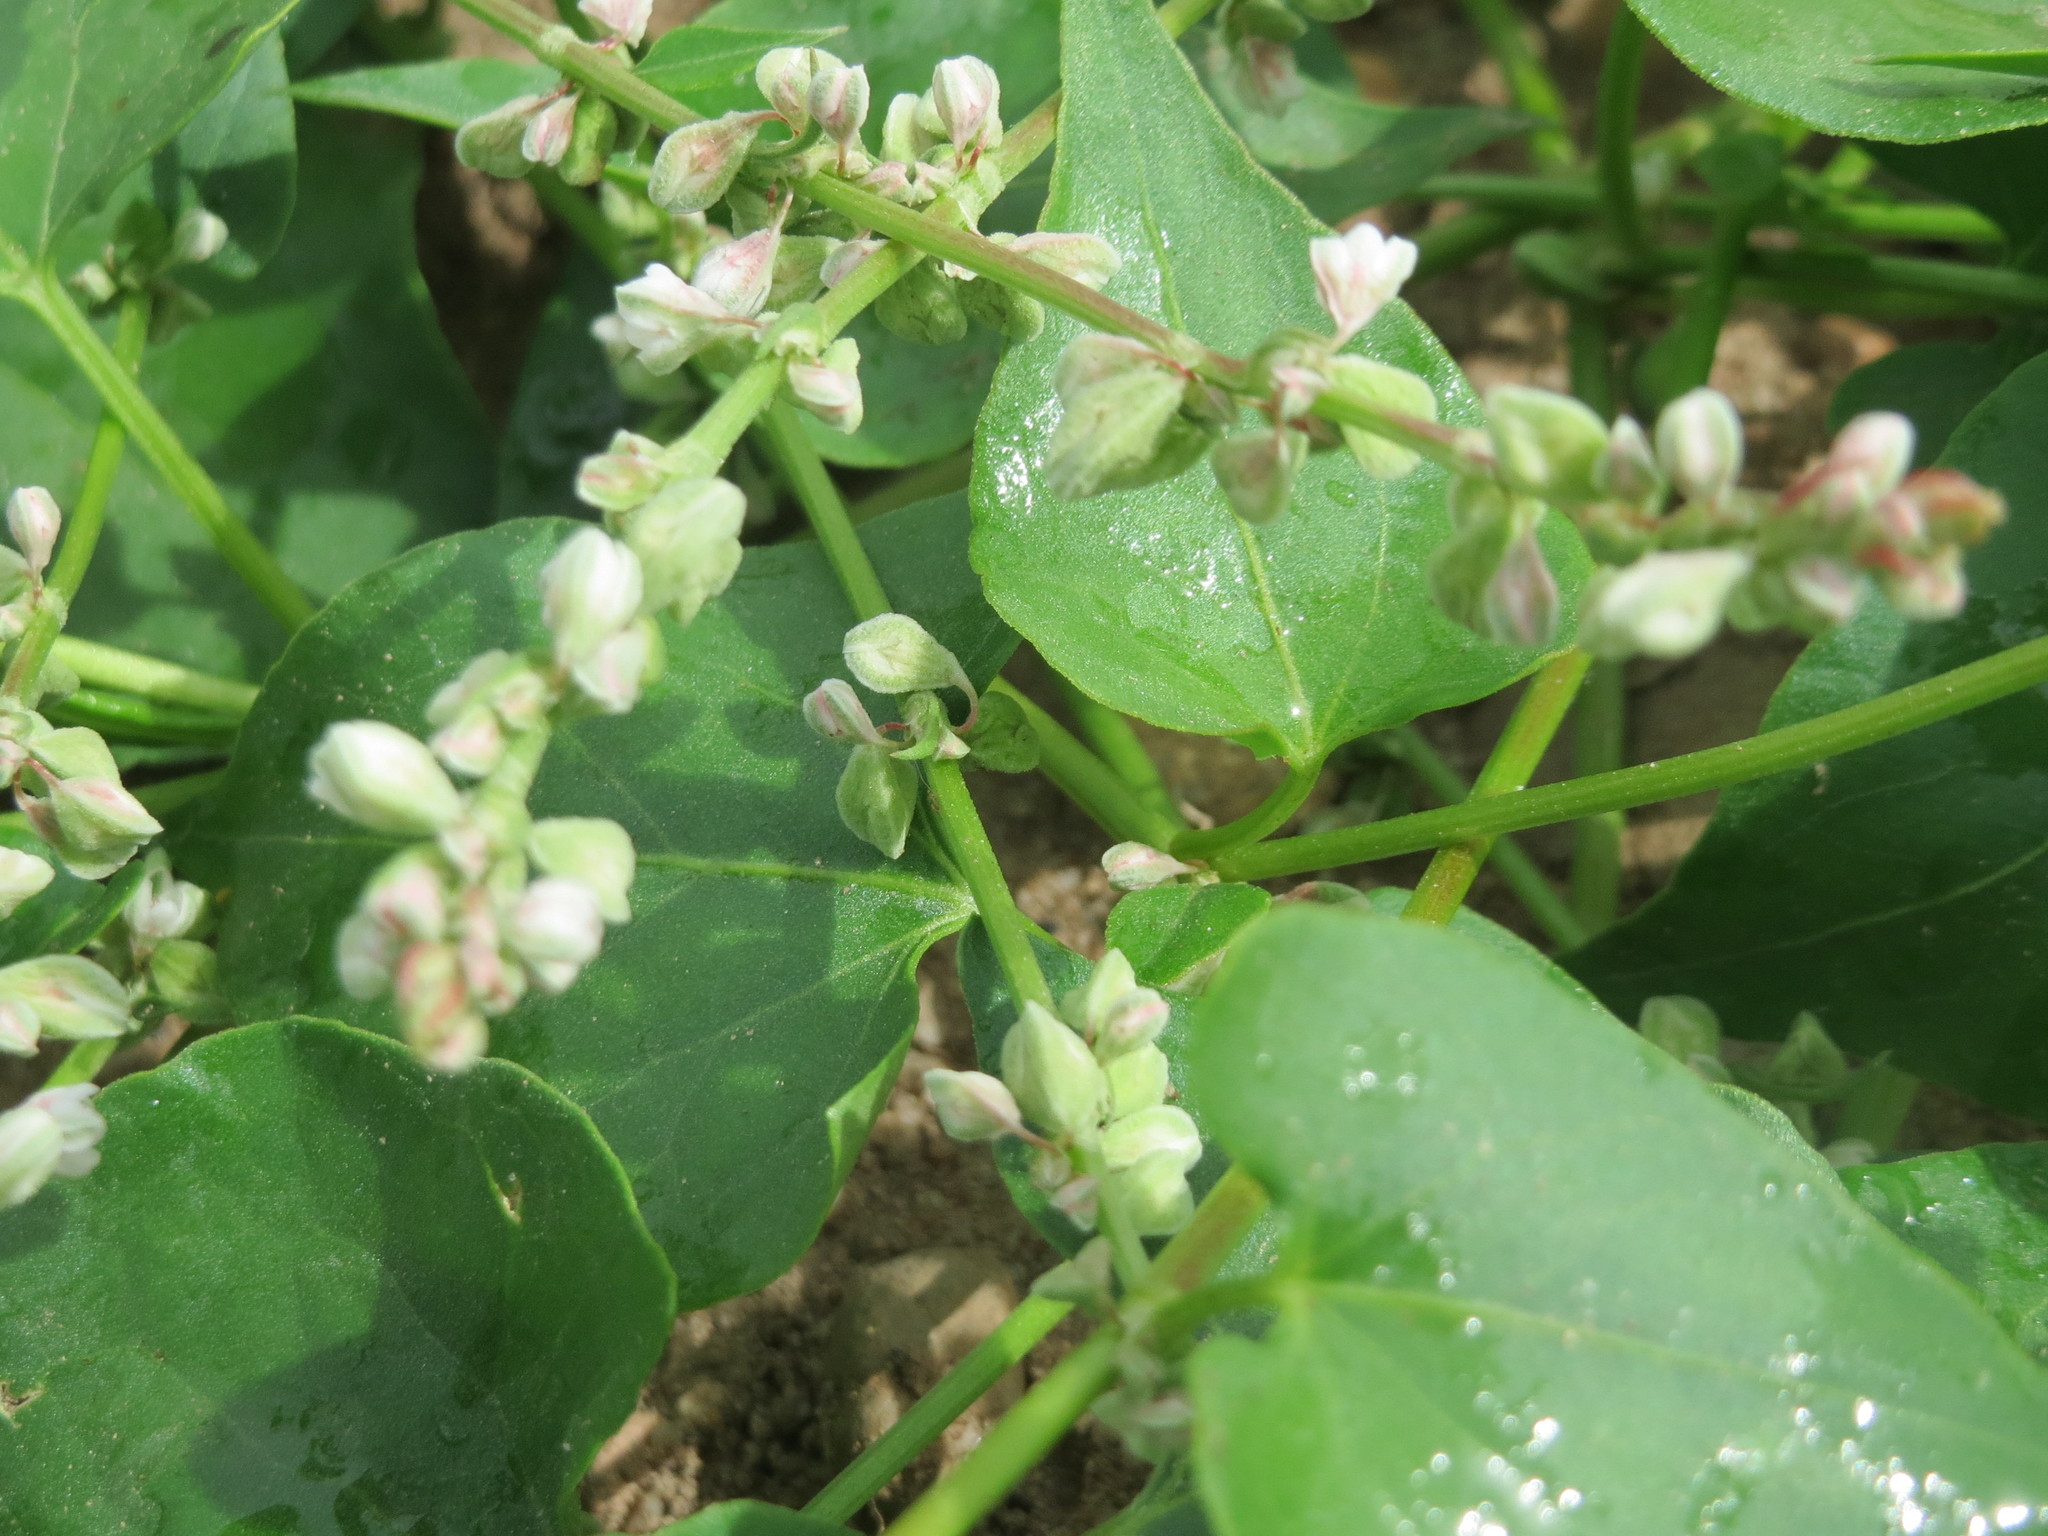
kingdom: Plantae
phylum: Tracheophyta
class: Magnoliopsida
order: Caryophyllales
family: Polygonaceae
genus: Fallopia
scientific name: Fallopia convolvulus
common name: Black bindweed
